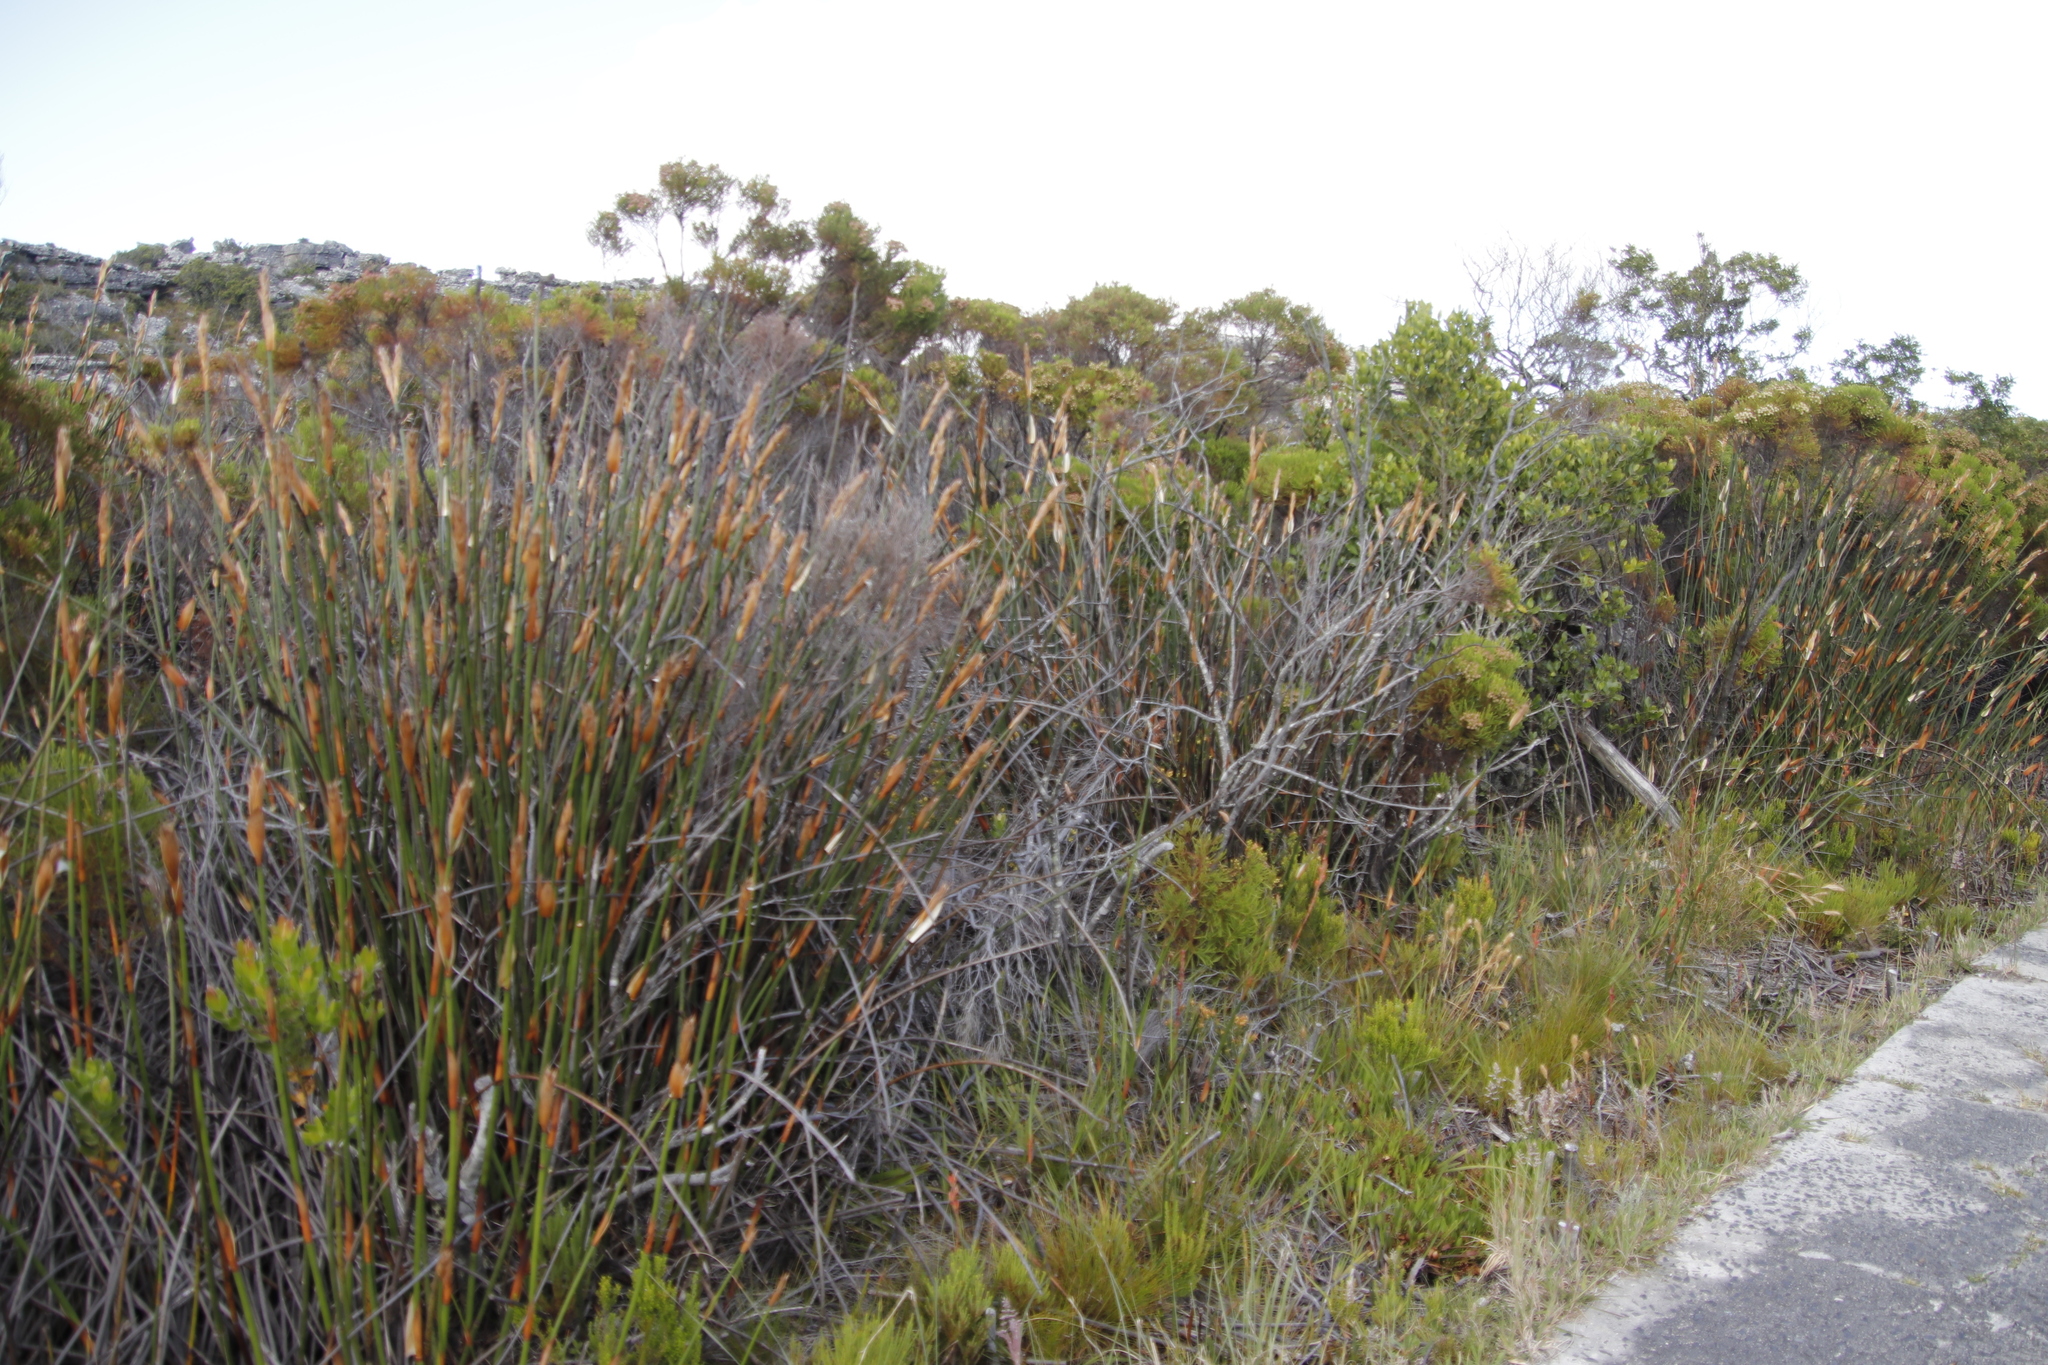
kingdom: Plantae
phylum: Tracheophyta
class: Liliopsida
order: Poales
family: Restionaceae
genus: Elegia
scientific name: Elegia mucronata
